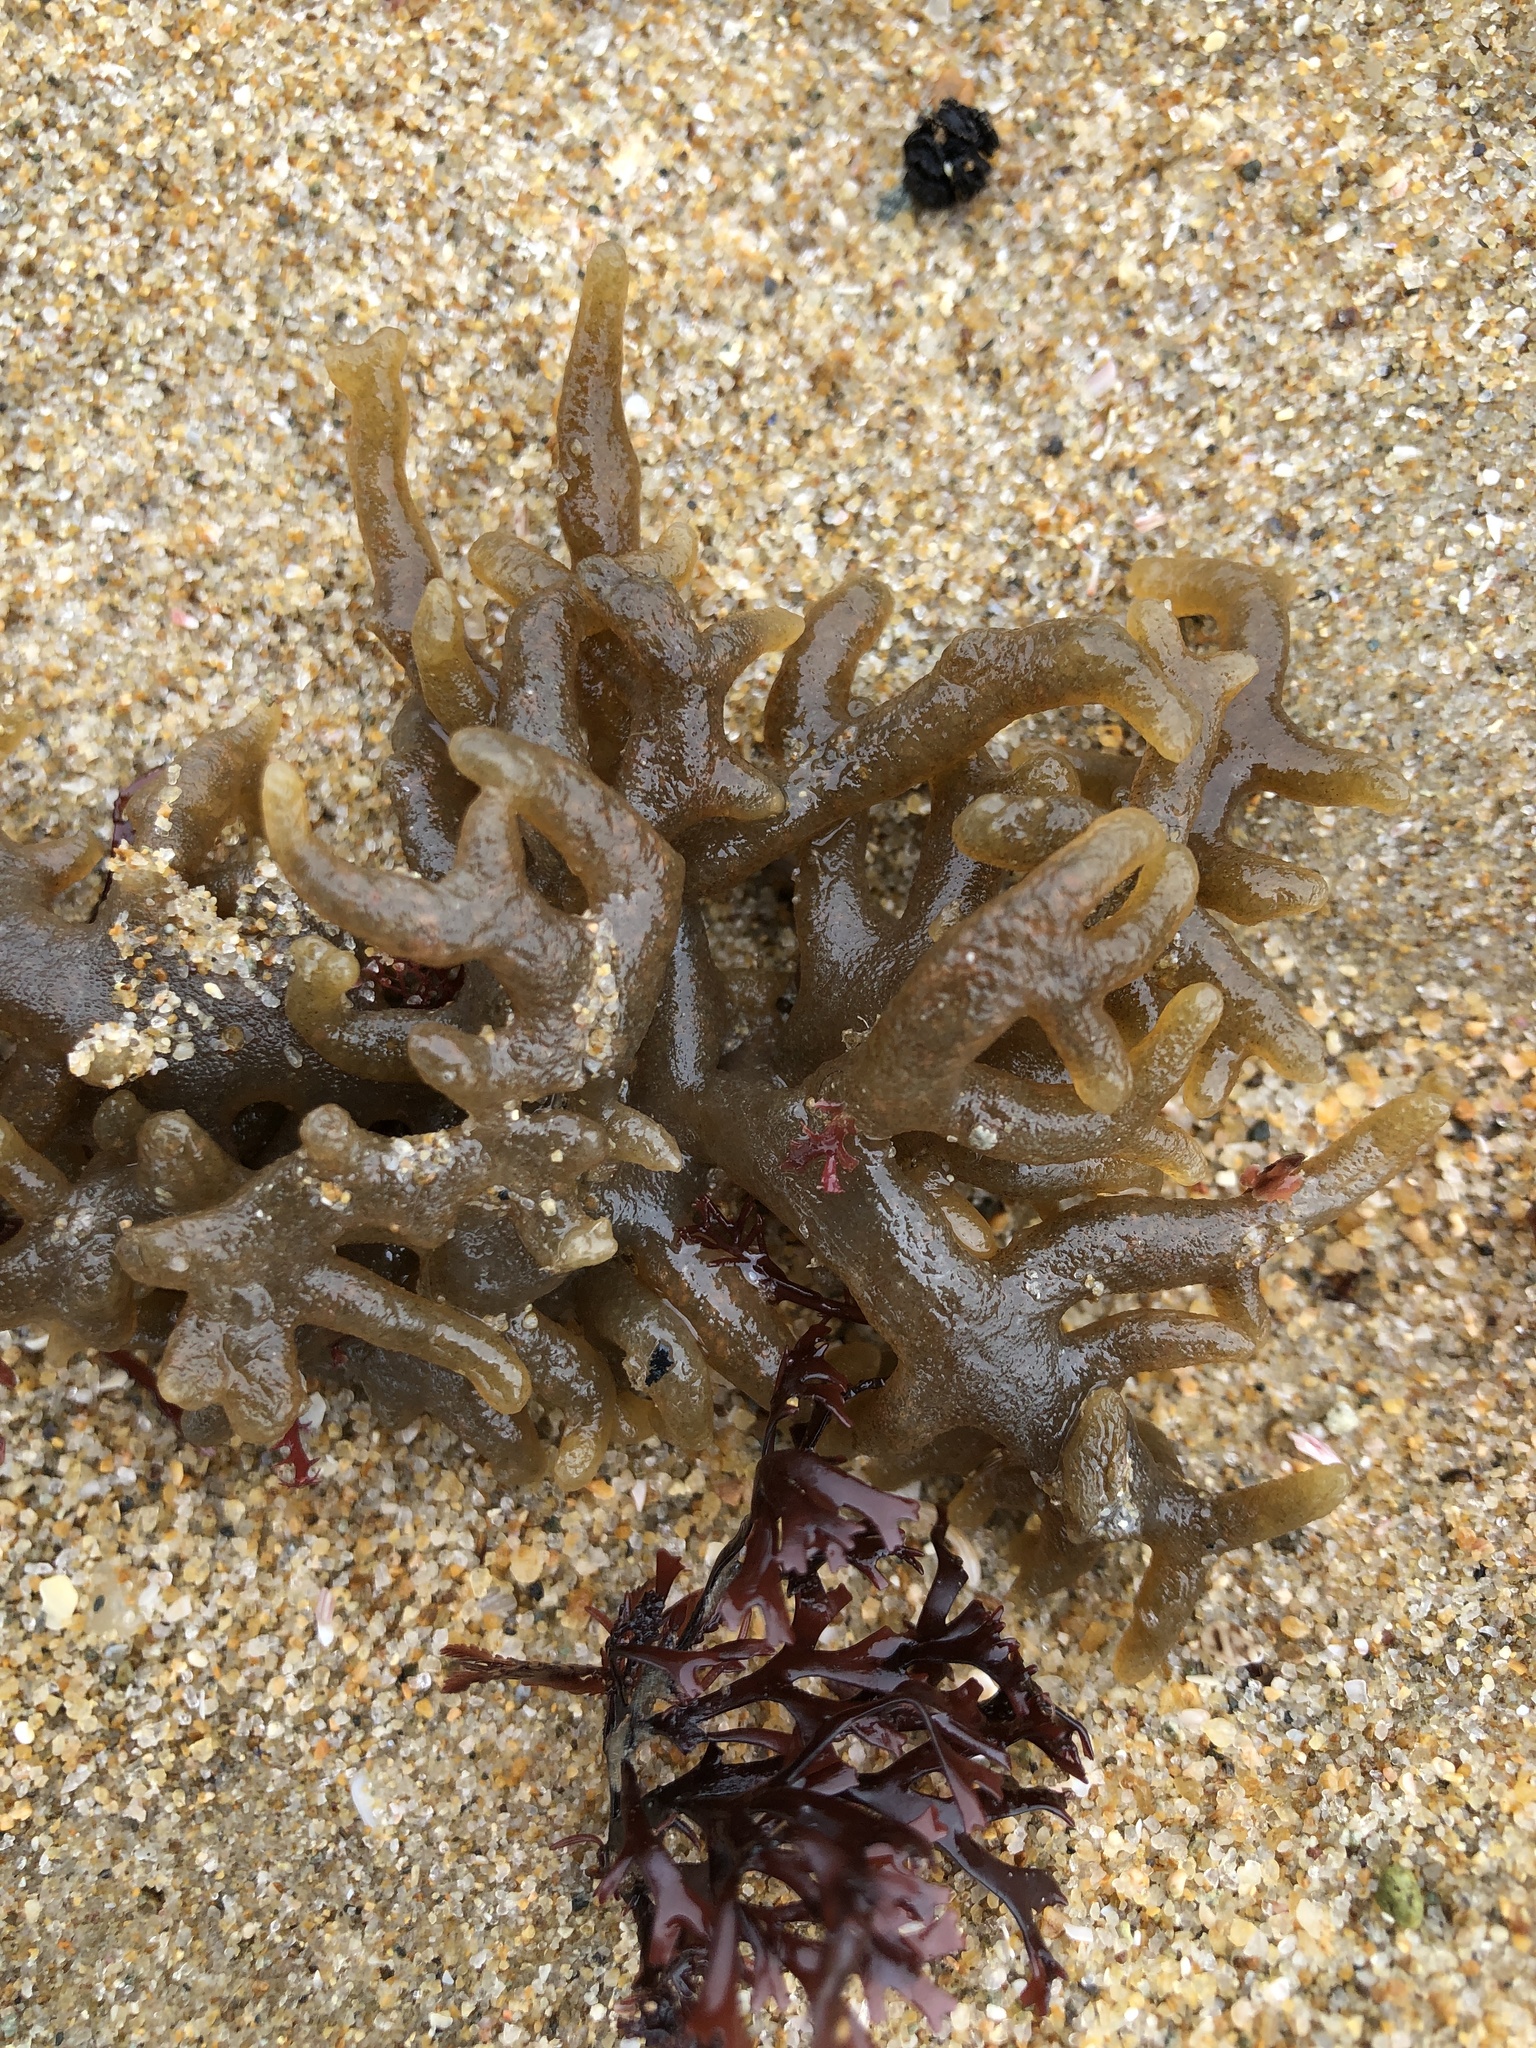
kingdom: Plantae
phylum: Chlorophyta
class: Ulvophyceae
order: Bryopsidales
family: Codiaceae
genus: Codium
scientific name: Codium fragile
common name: Dead man's fingers
